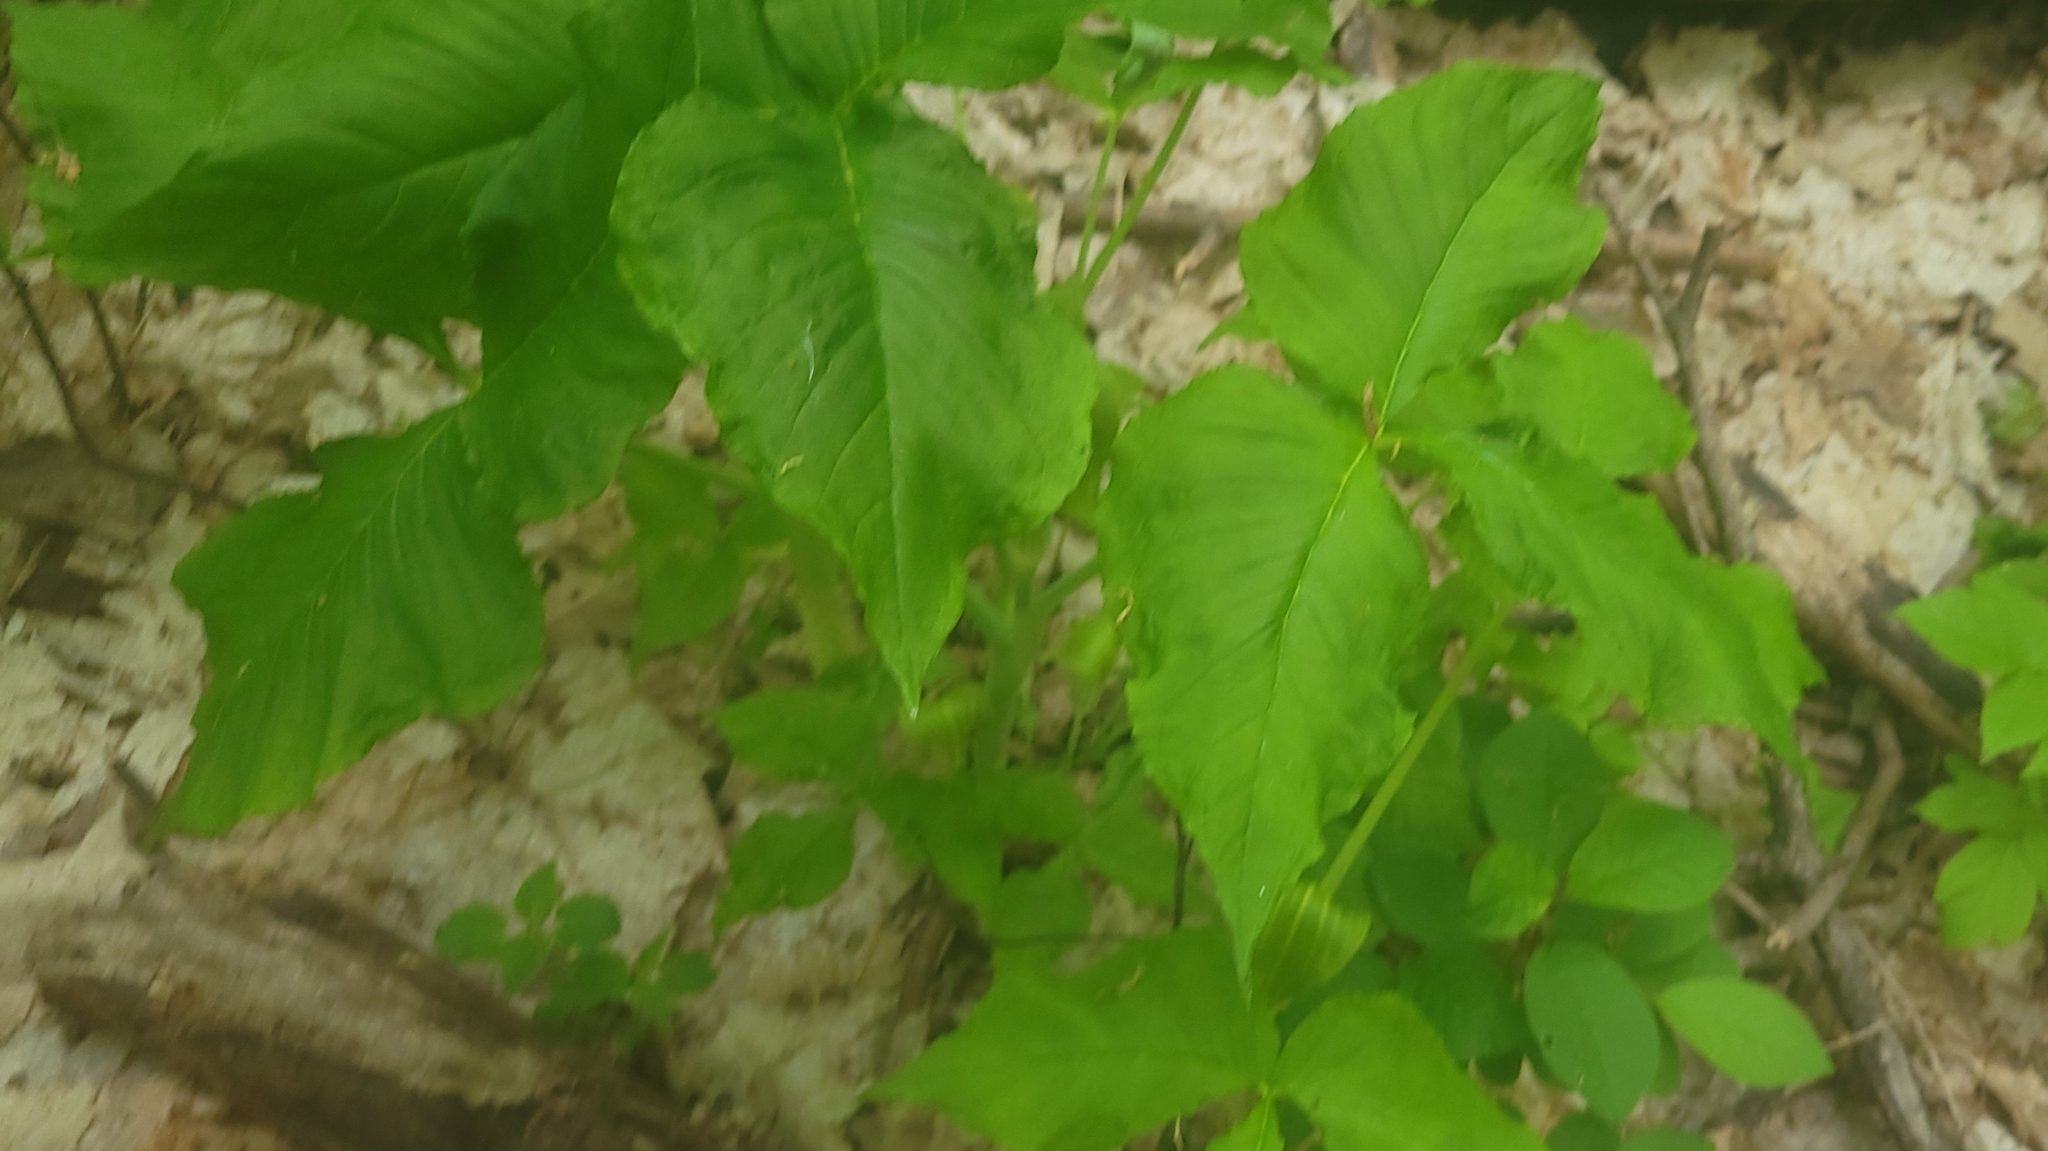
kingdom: Plantae
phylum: Tracheophyta
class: Liliopsida
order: Alismatales
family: Araceae
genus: Arisaema
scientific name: Arisaema triphyllum
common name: Jack-in-the-pulpit
